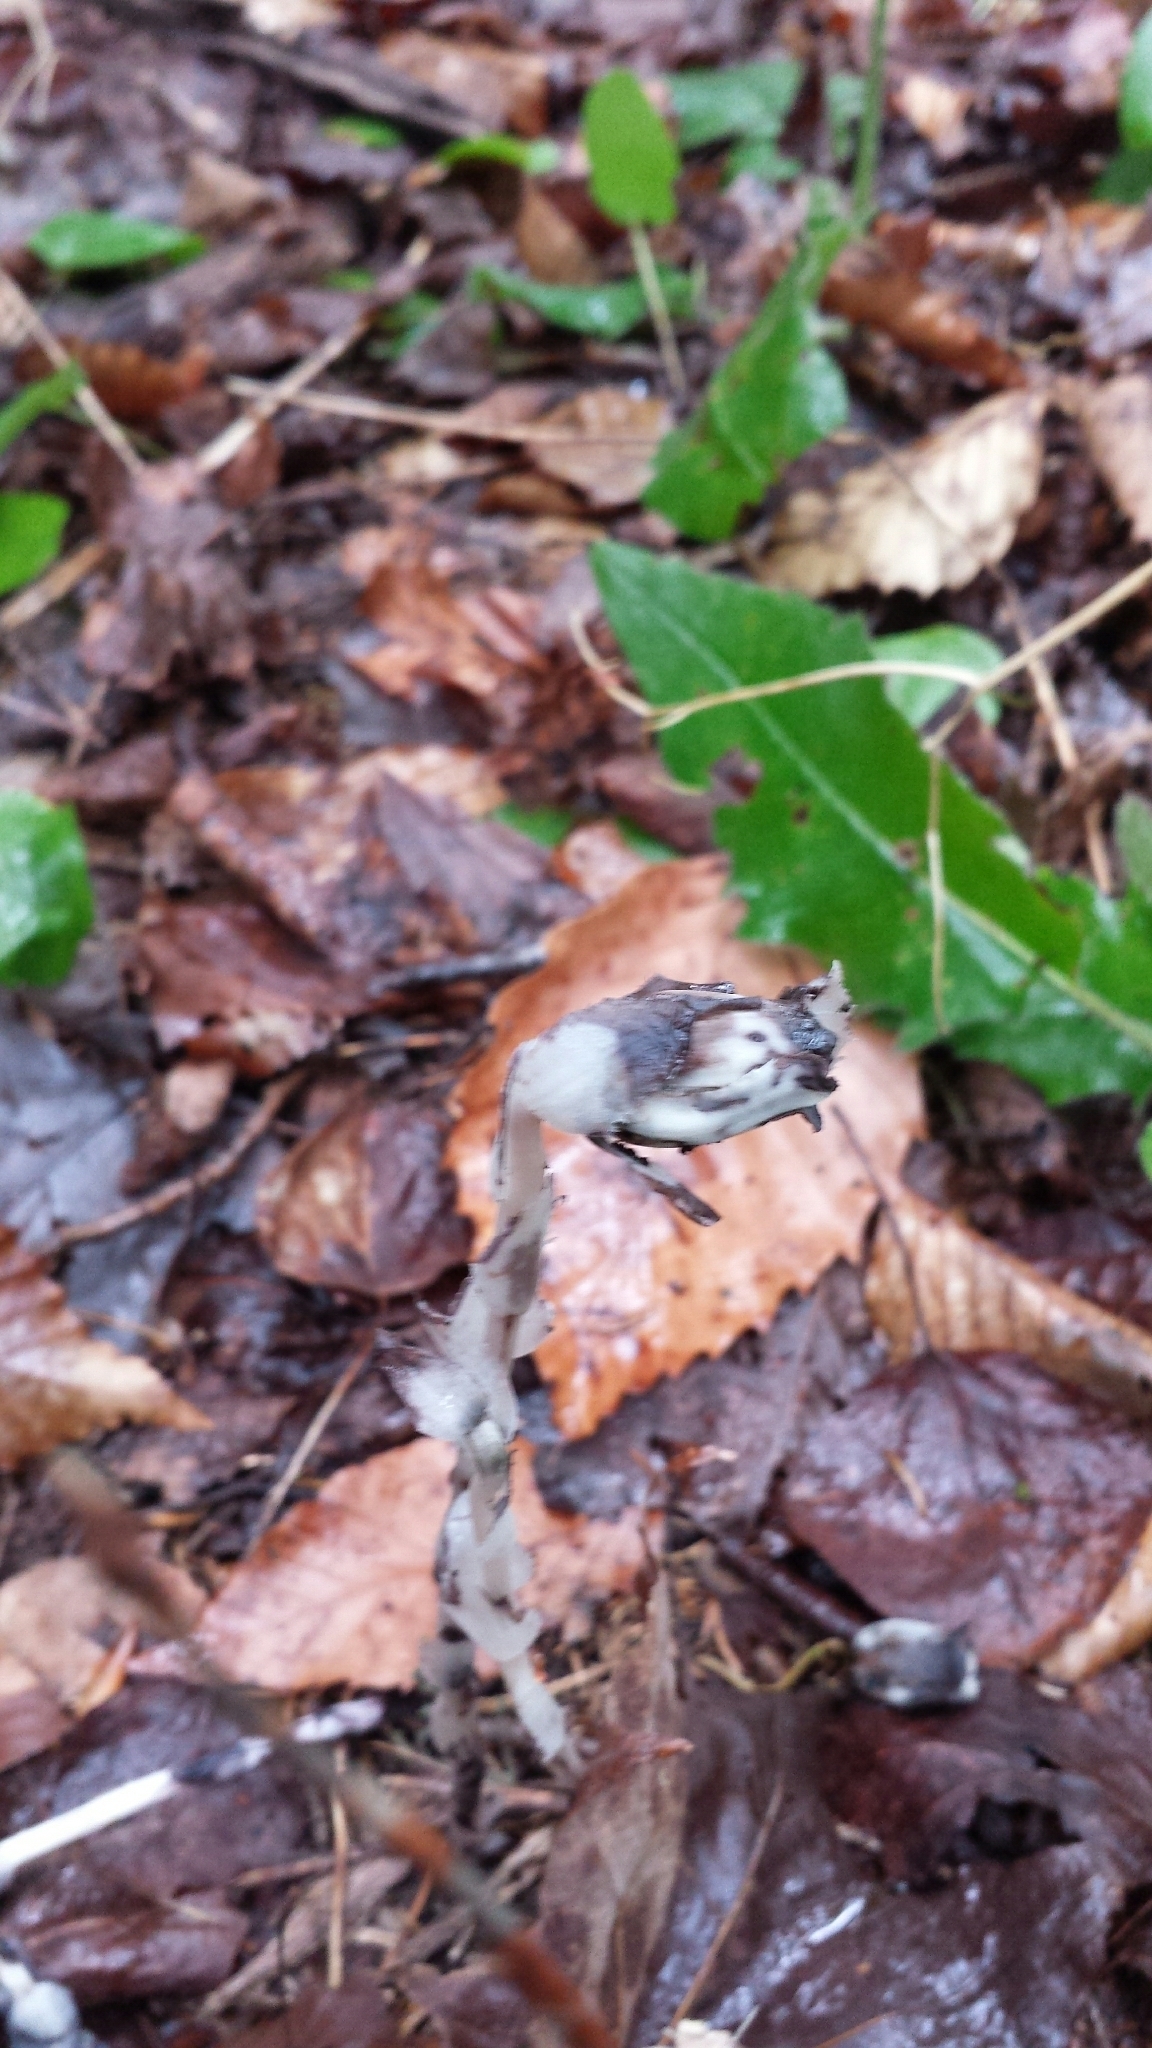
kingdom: Plantae
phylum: Tracheophyta
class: Magnoliopsida
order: Ericales
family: Ericaceae
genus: Monotropa
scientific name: Monotropa uniflora
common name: Convulsion root
